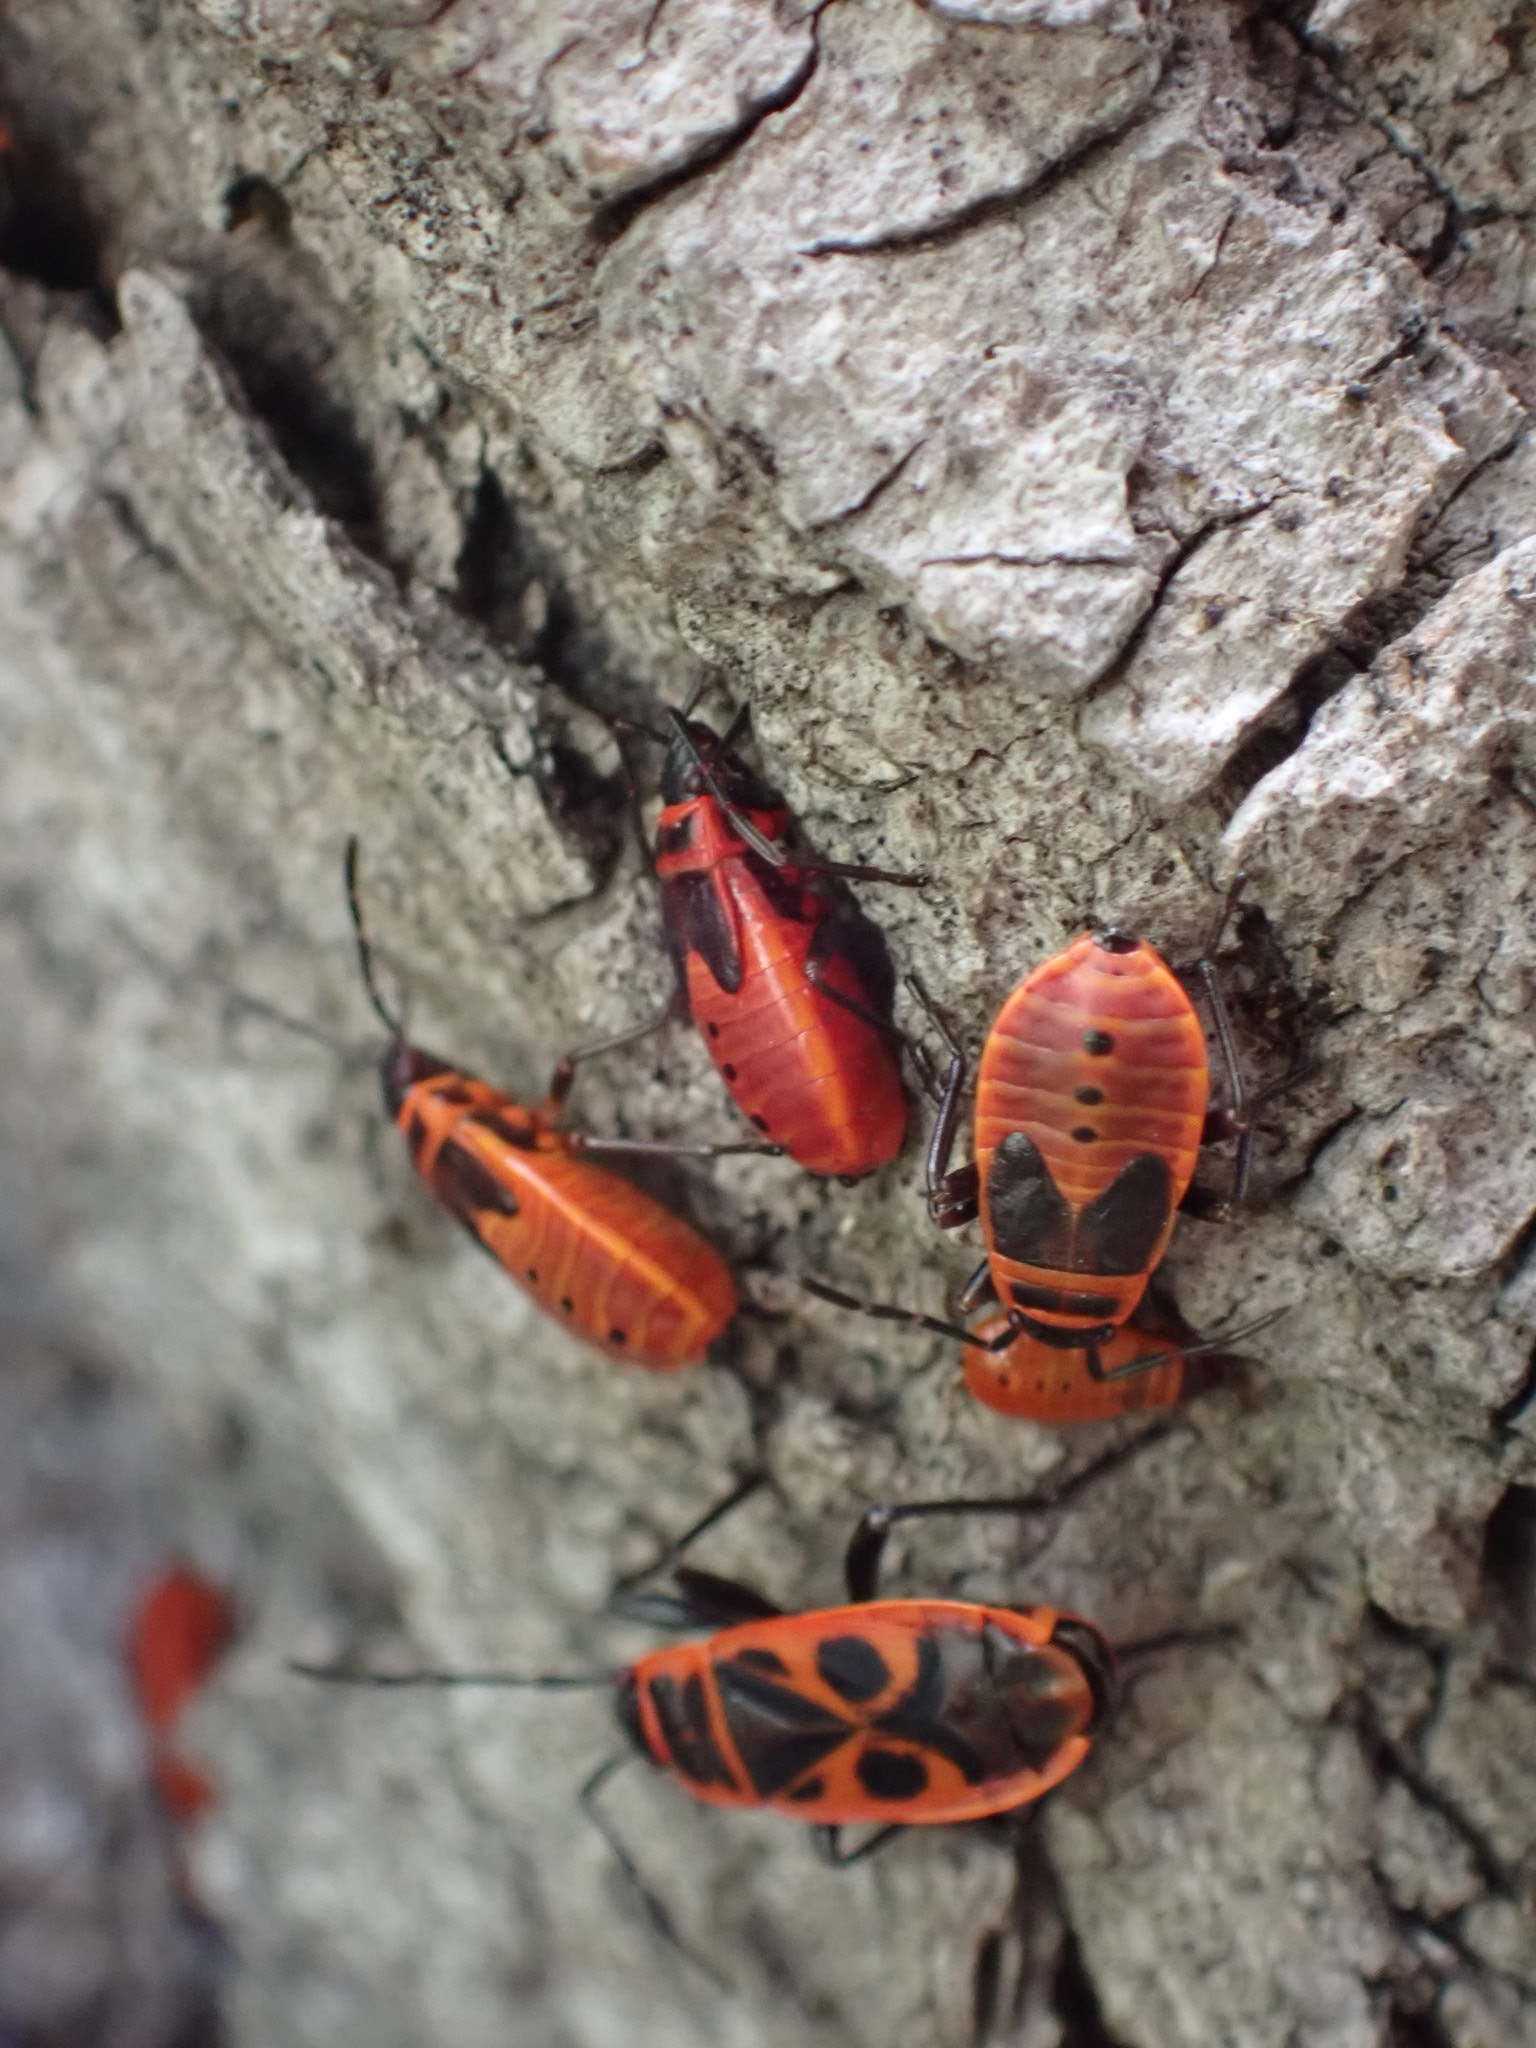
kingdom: Animalia
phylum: Arthropoda
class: Insecta
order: Hemiptera
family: Pyrrhocoridae
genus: Pyrrhocoris
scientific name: Pyrrhocoris apterus
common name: Firebug
